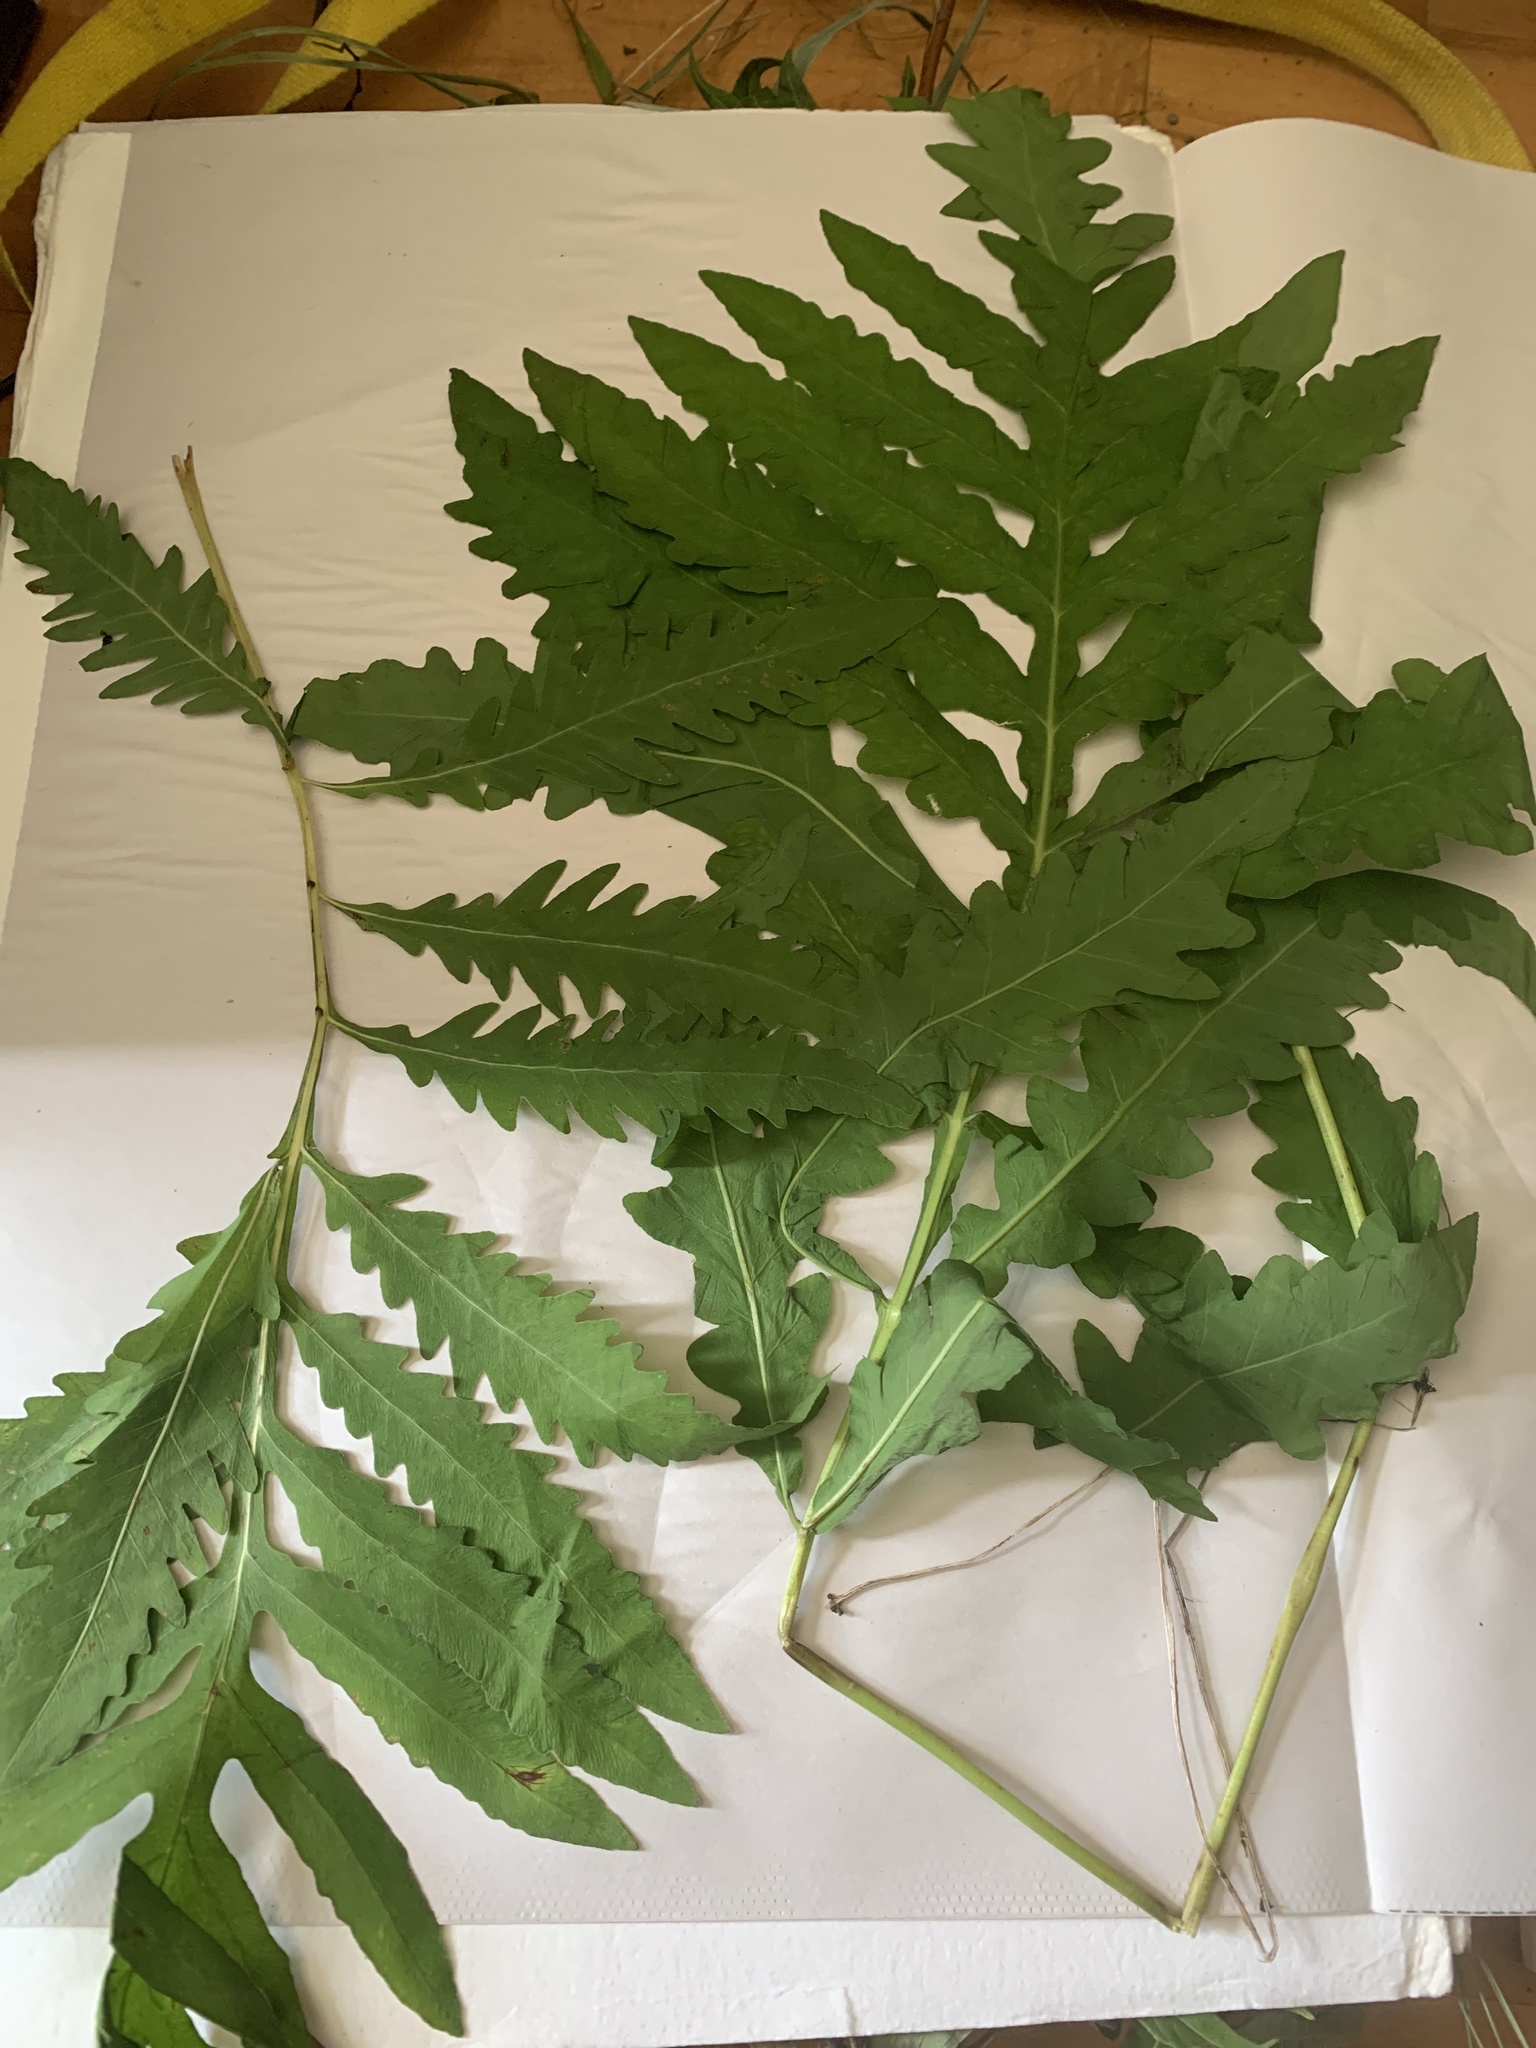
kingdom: Plantae
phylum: Tracheophyta
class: Polypodiopsida
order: Polypodiales
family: Onocleaceae
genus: Onoclea
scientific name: Onoclea sensibilis
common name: Sensitive fern
